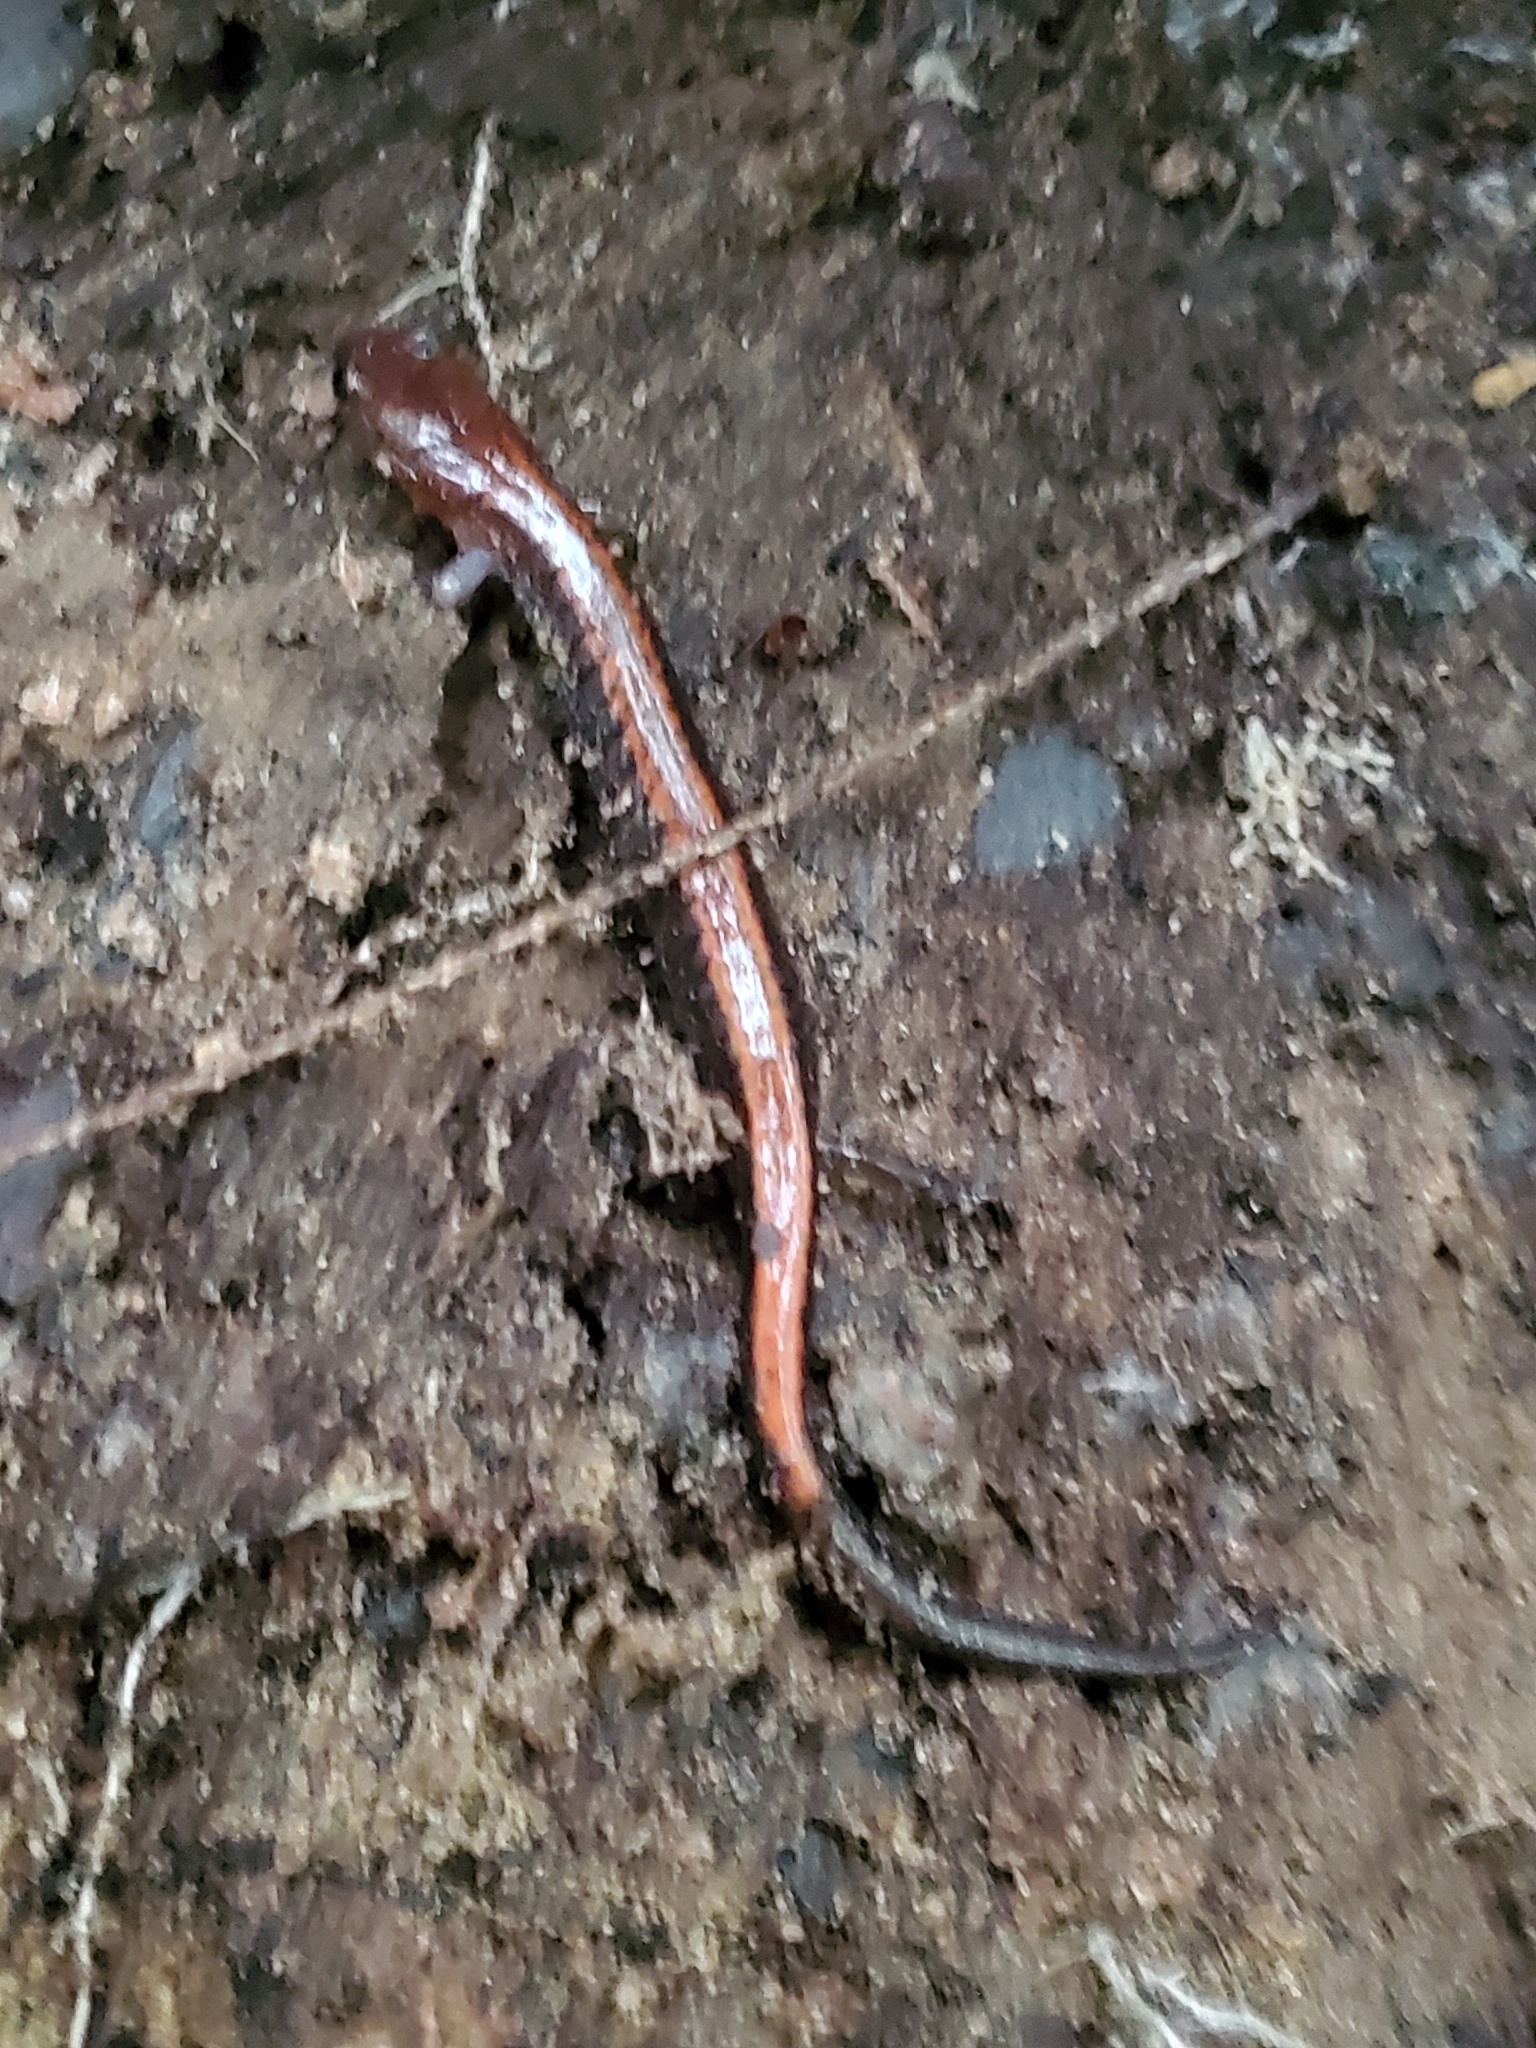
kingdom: Animalia
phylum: Chordata
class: Amphibia
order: Caudata
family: Plethodontidae
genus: Plethodon
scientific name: Plethodon cinereus
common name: Redback salamander
